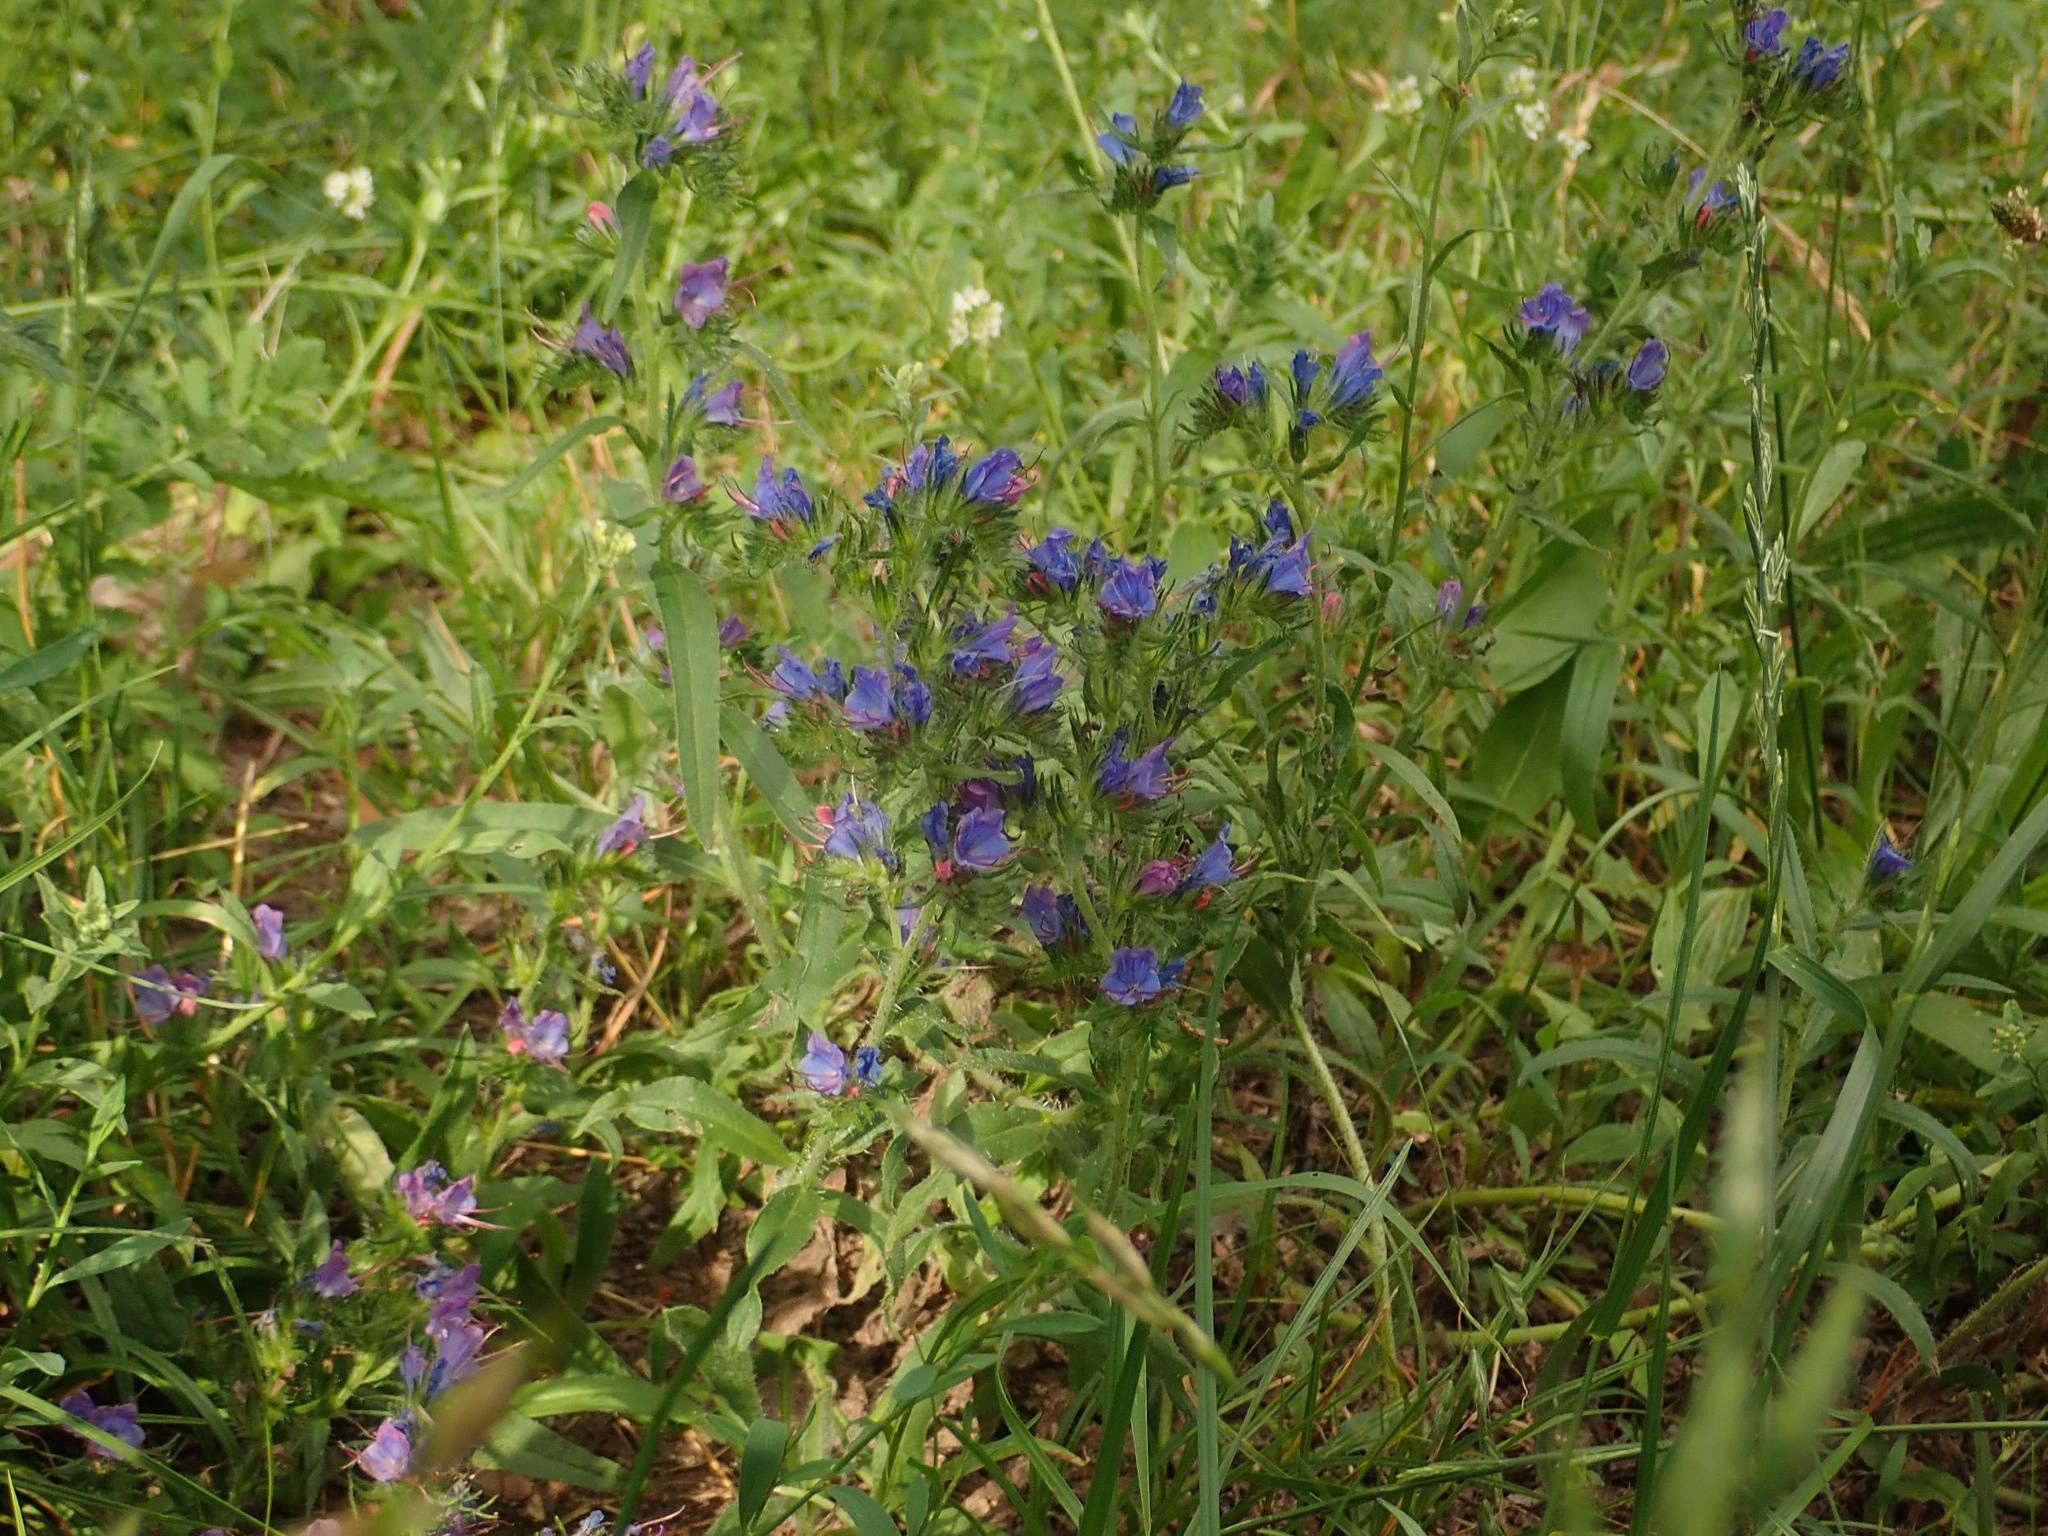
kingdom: Plantae
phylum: Tracheophyta
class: Magnoliopsida
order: Boraginales
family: Boraginaceae
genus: Echium
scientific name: Echium vulgare
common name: Common viper's bugloss
